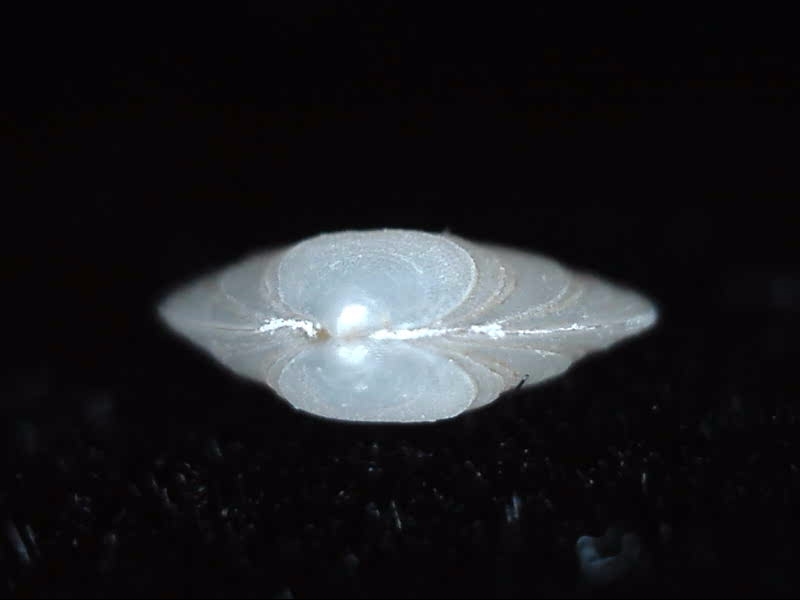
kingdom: Animalia
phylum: Mollusca
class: Bivalvia
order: Galeommatida
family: Lasaeidae
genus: Borniola
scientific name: Borniola reniformis
